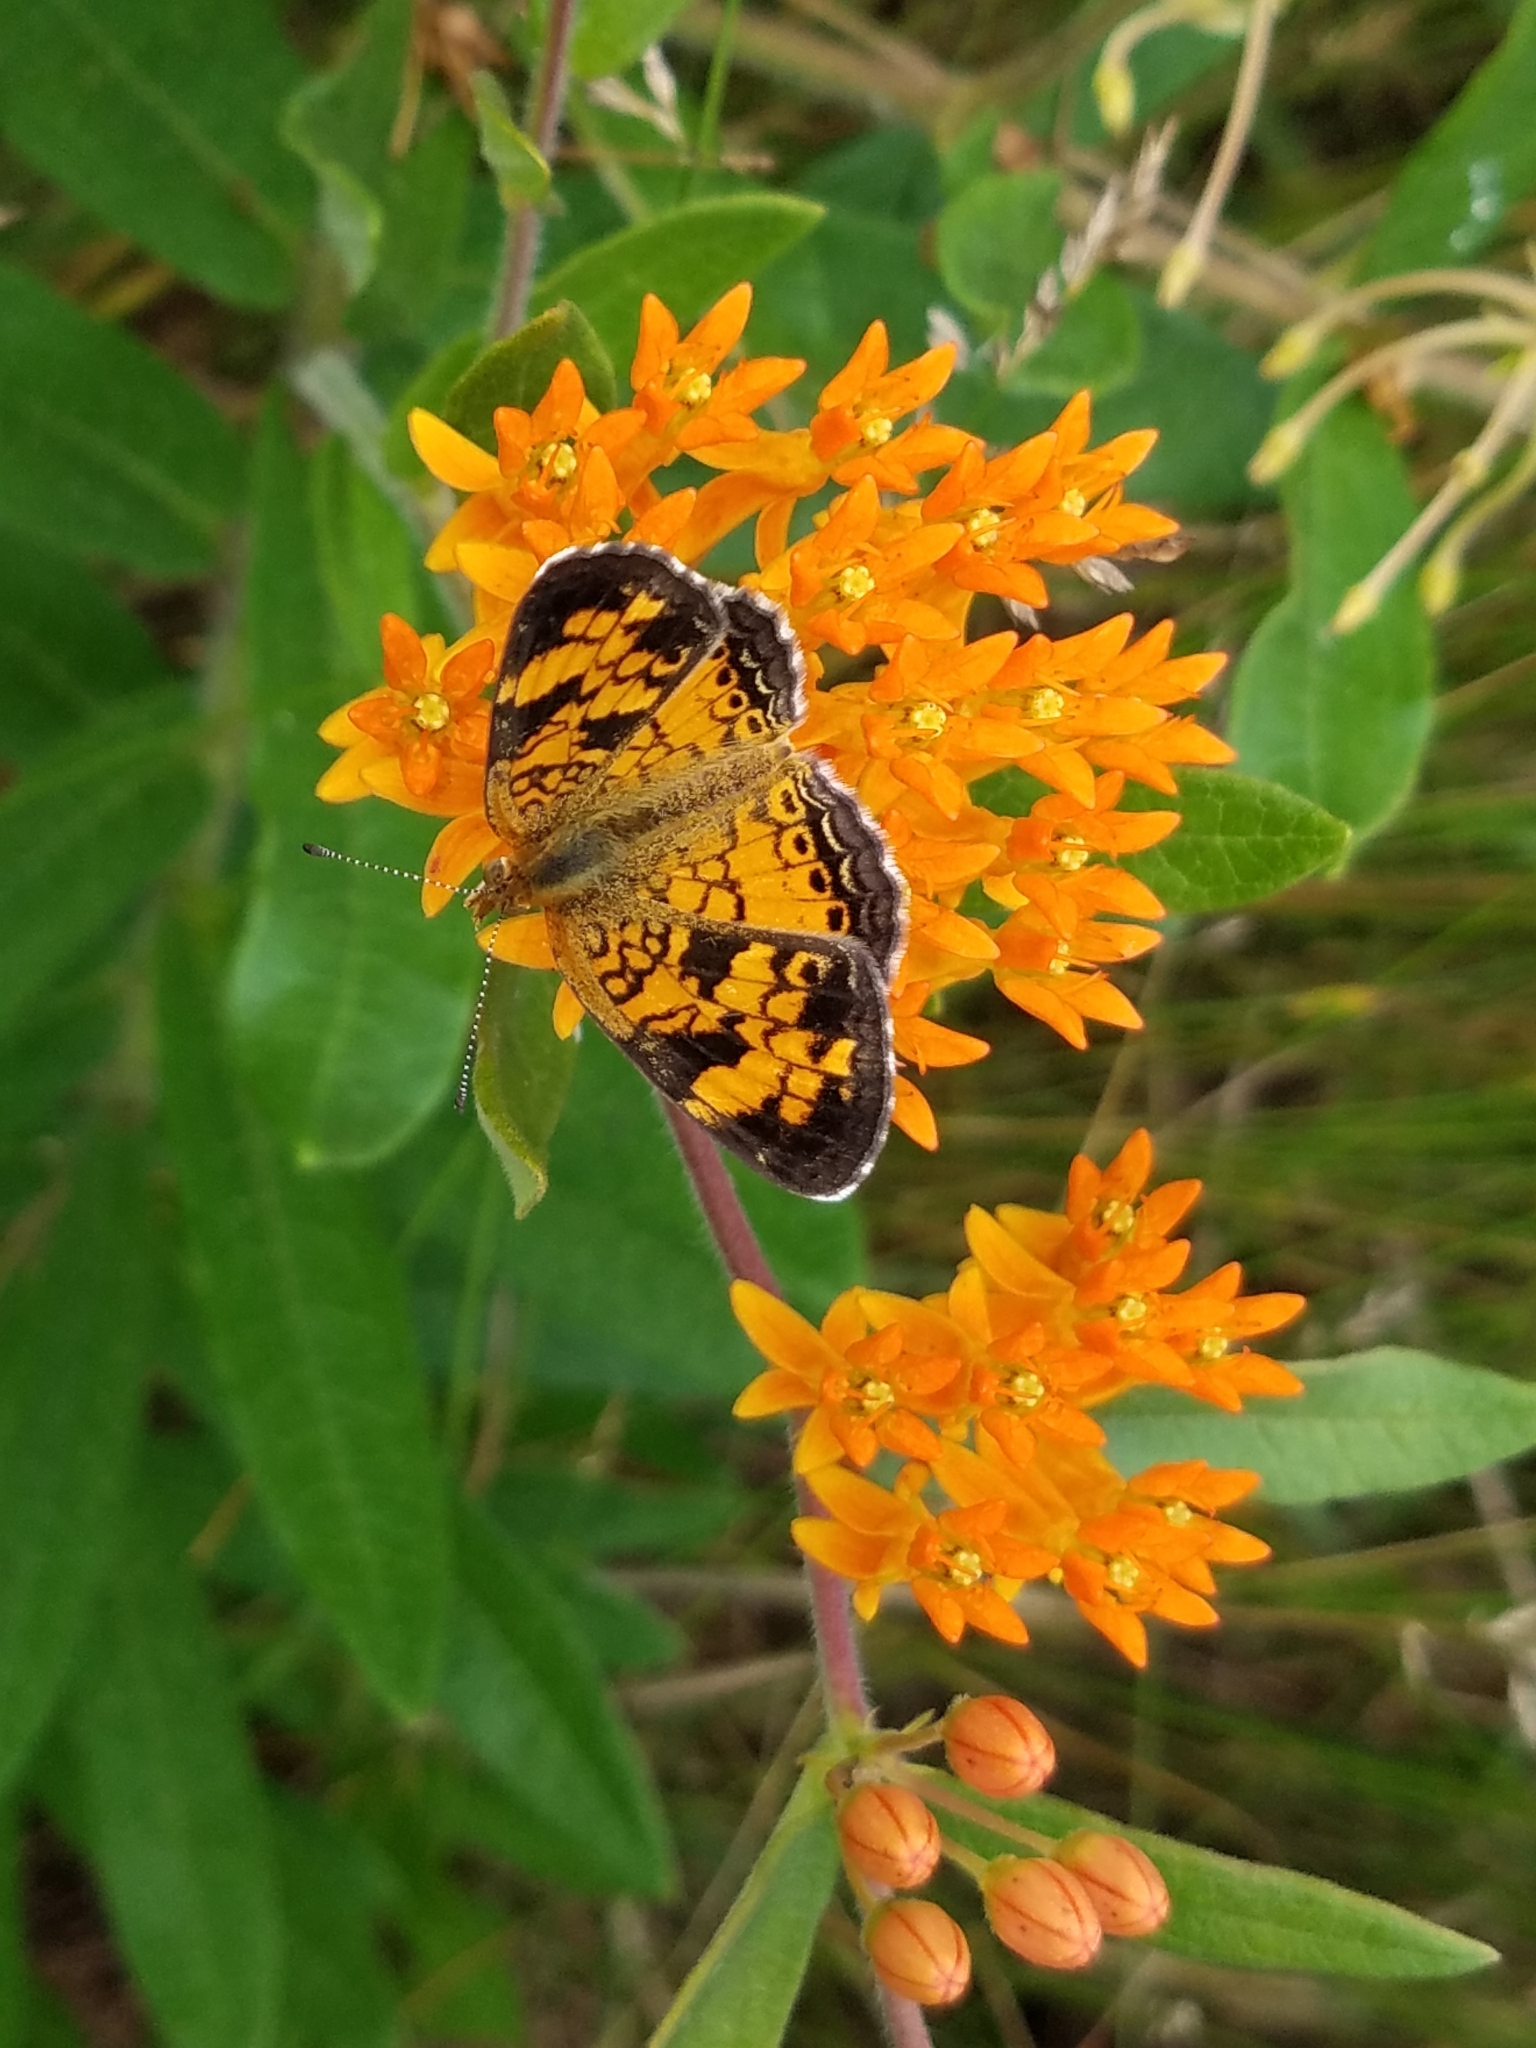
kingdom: Animalia
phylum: Arthropoda
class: Insecta
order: Lepidoptera
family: Nymphalidae
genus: Phyciodes
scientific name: Phyciodes tharos
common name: Pearl crescent
